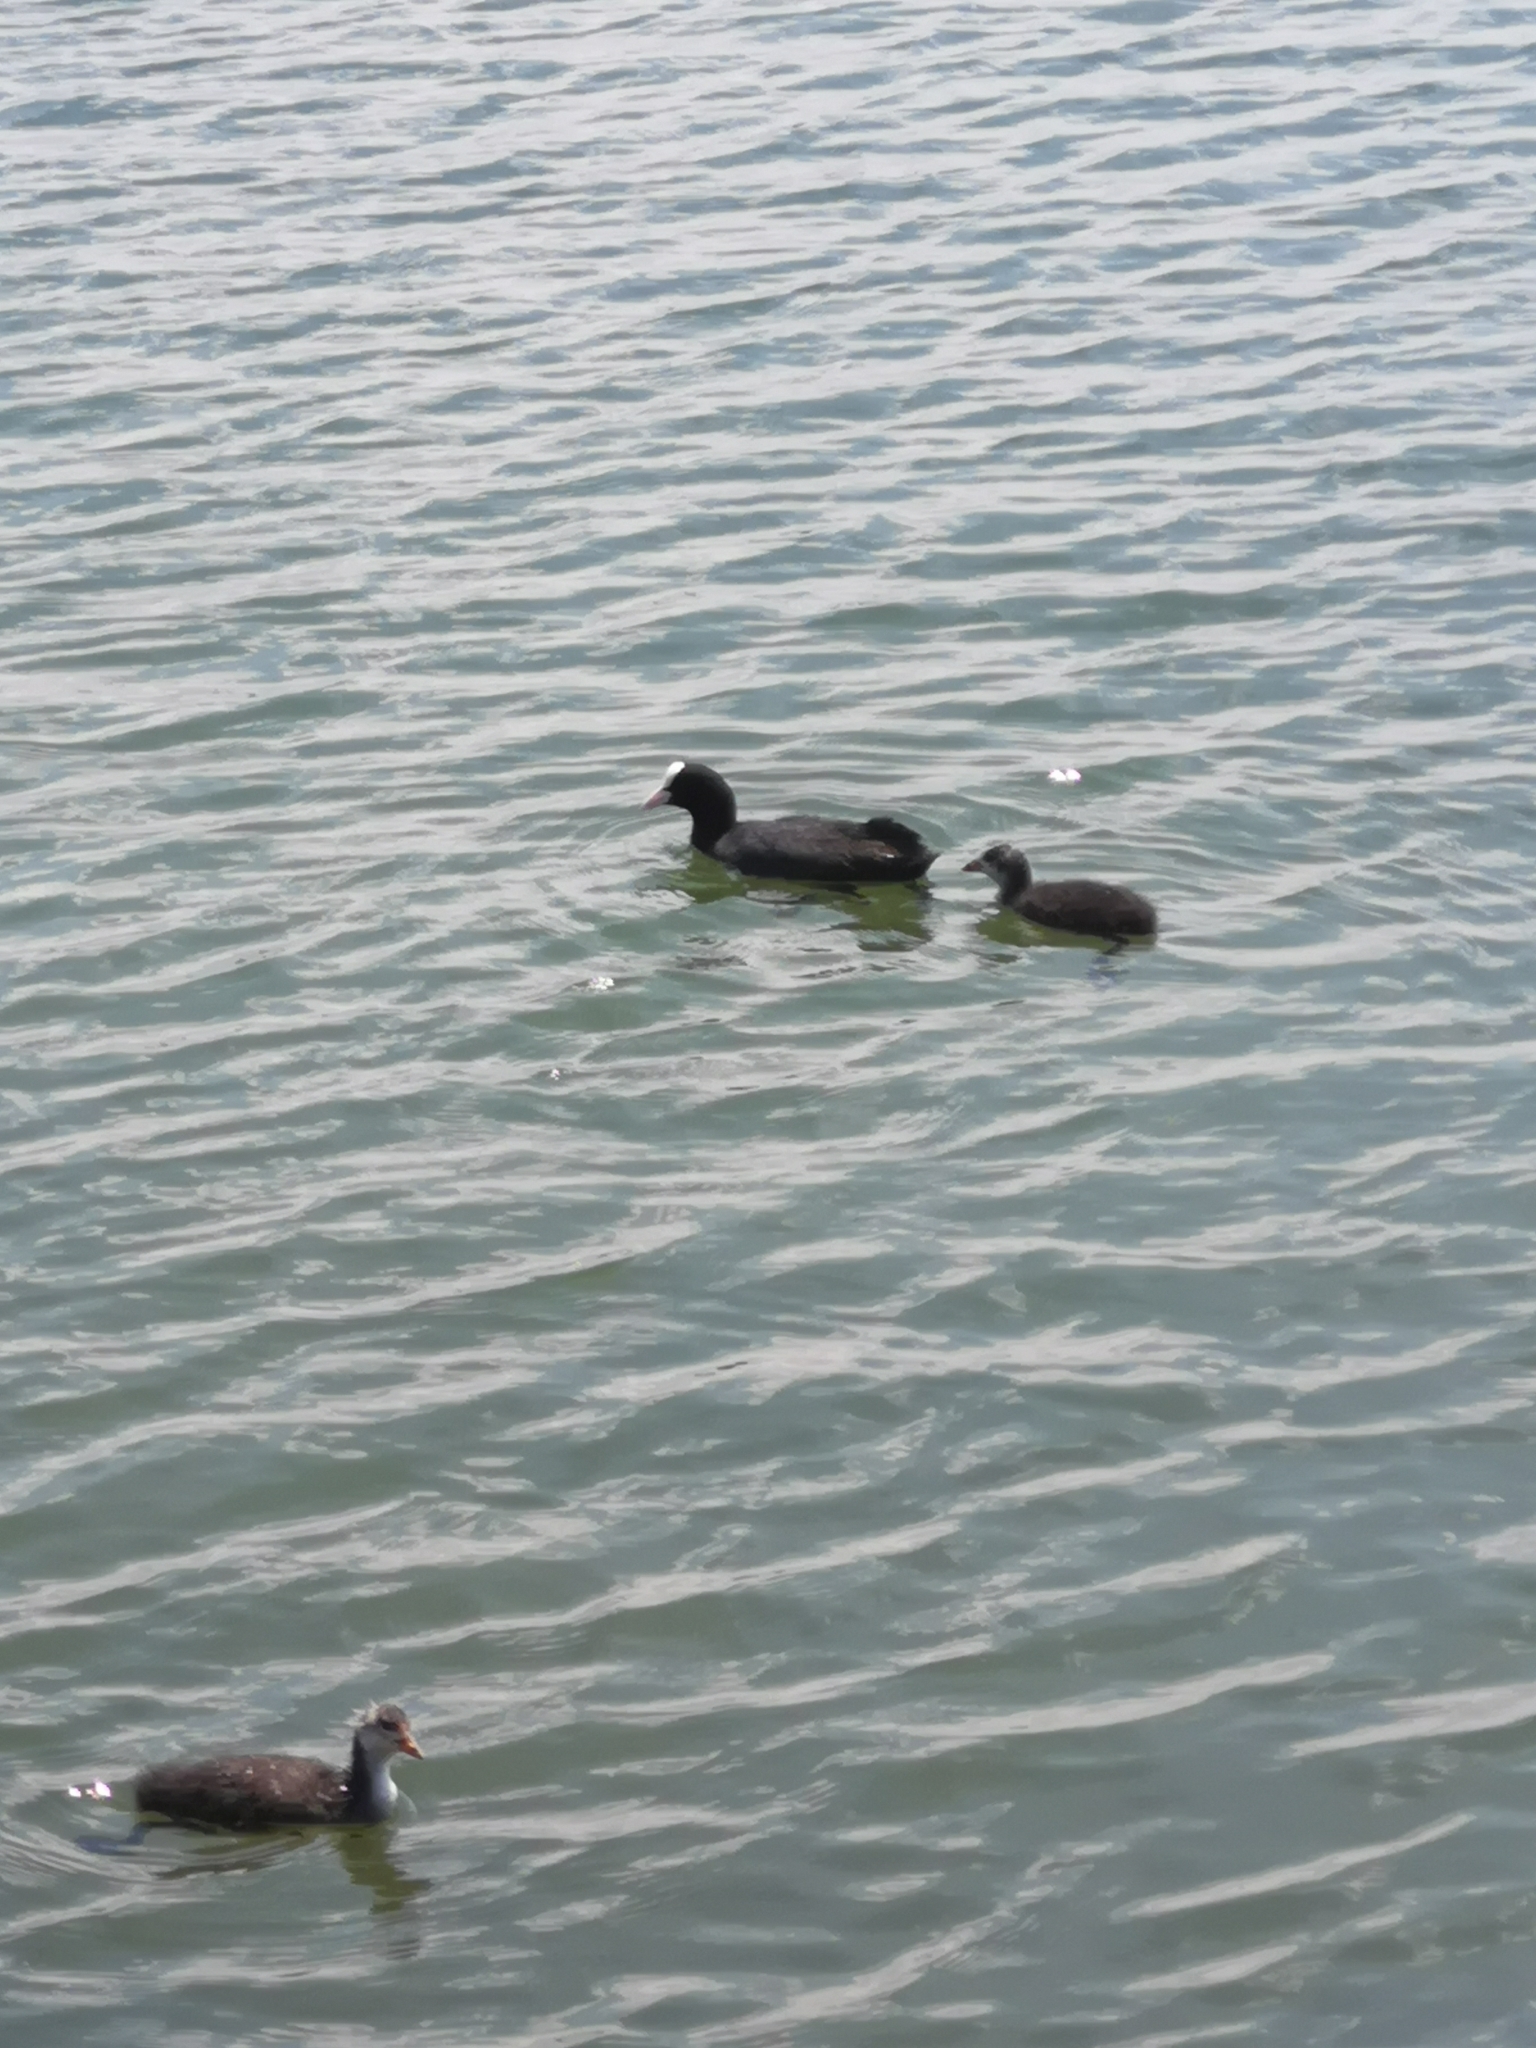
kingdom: Animalia
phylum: Chordata
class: Aves
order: Gruiformes
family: Rallidae
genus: Fulica
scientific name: Fulica atra
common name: Eurasian coot
